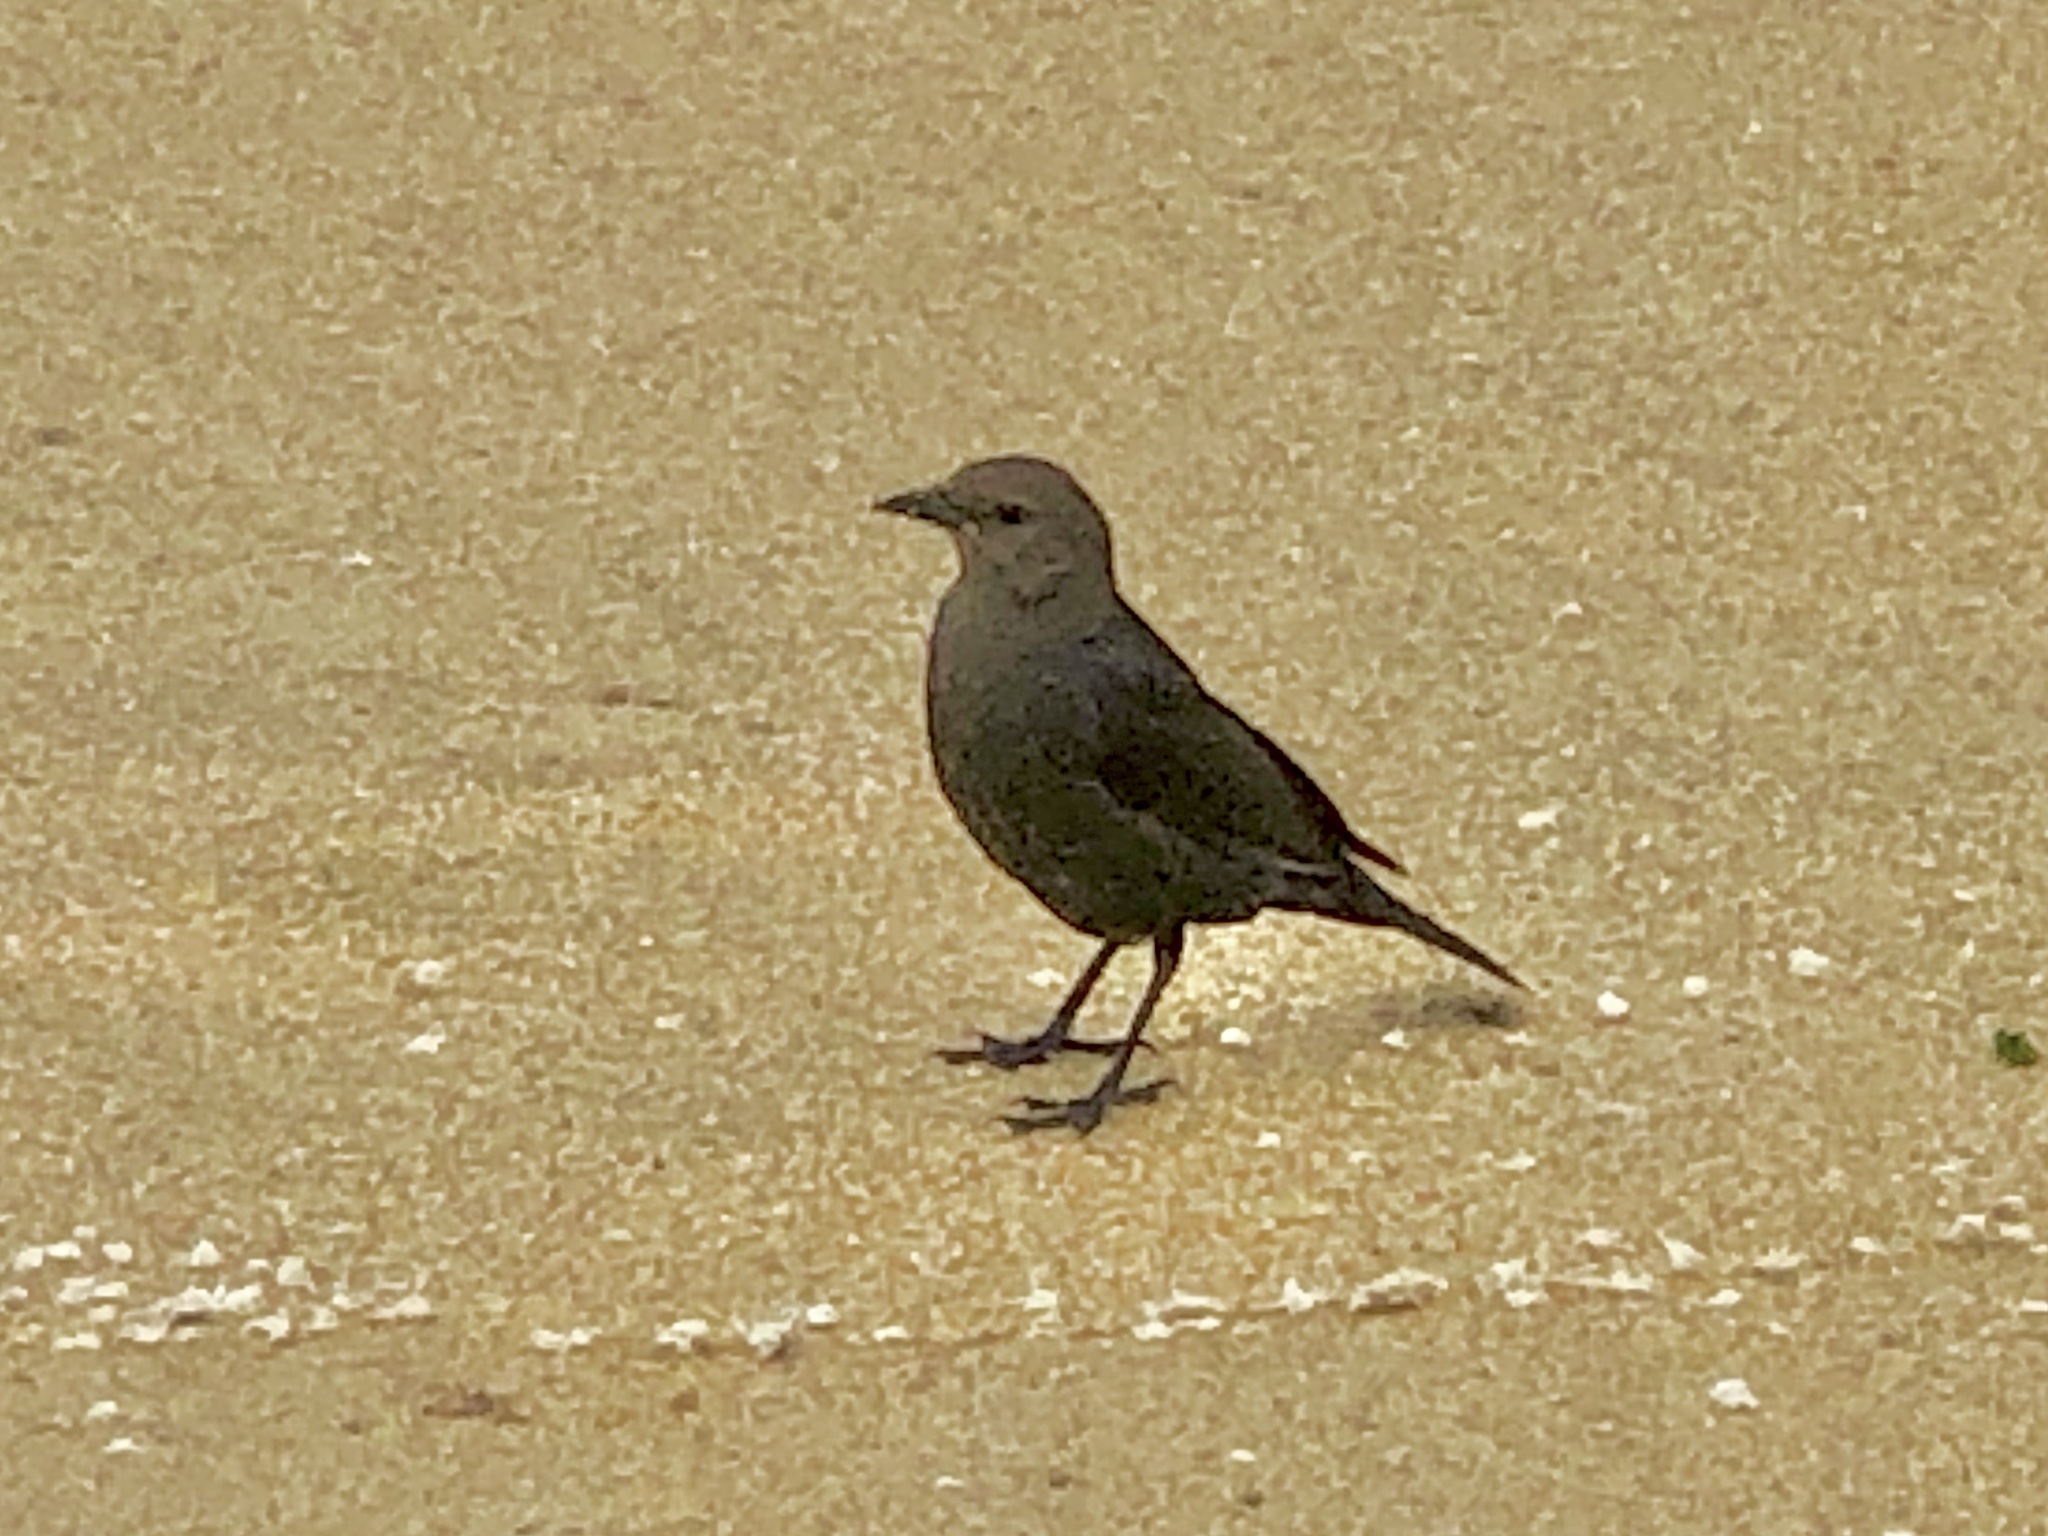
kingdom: Animalia
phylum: Chordata
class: Aves
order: Passeriformes
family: Icteridae
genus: Euphagus
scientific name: Euphagus cyanocephalus
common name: Brewer's blackbird
